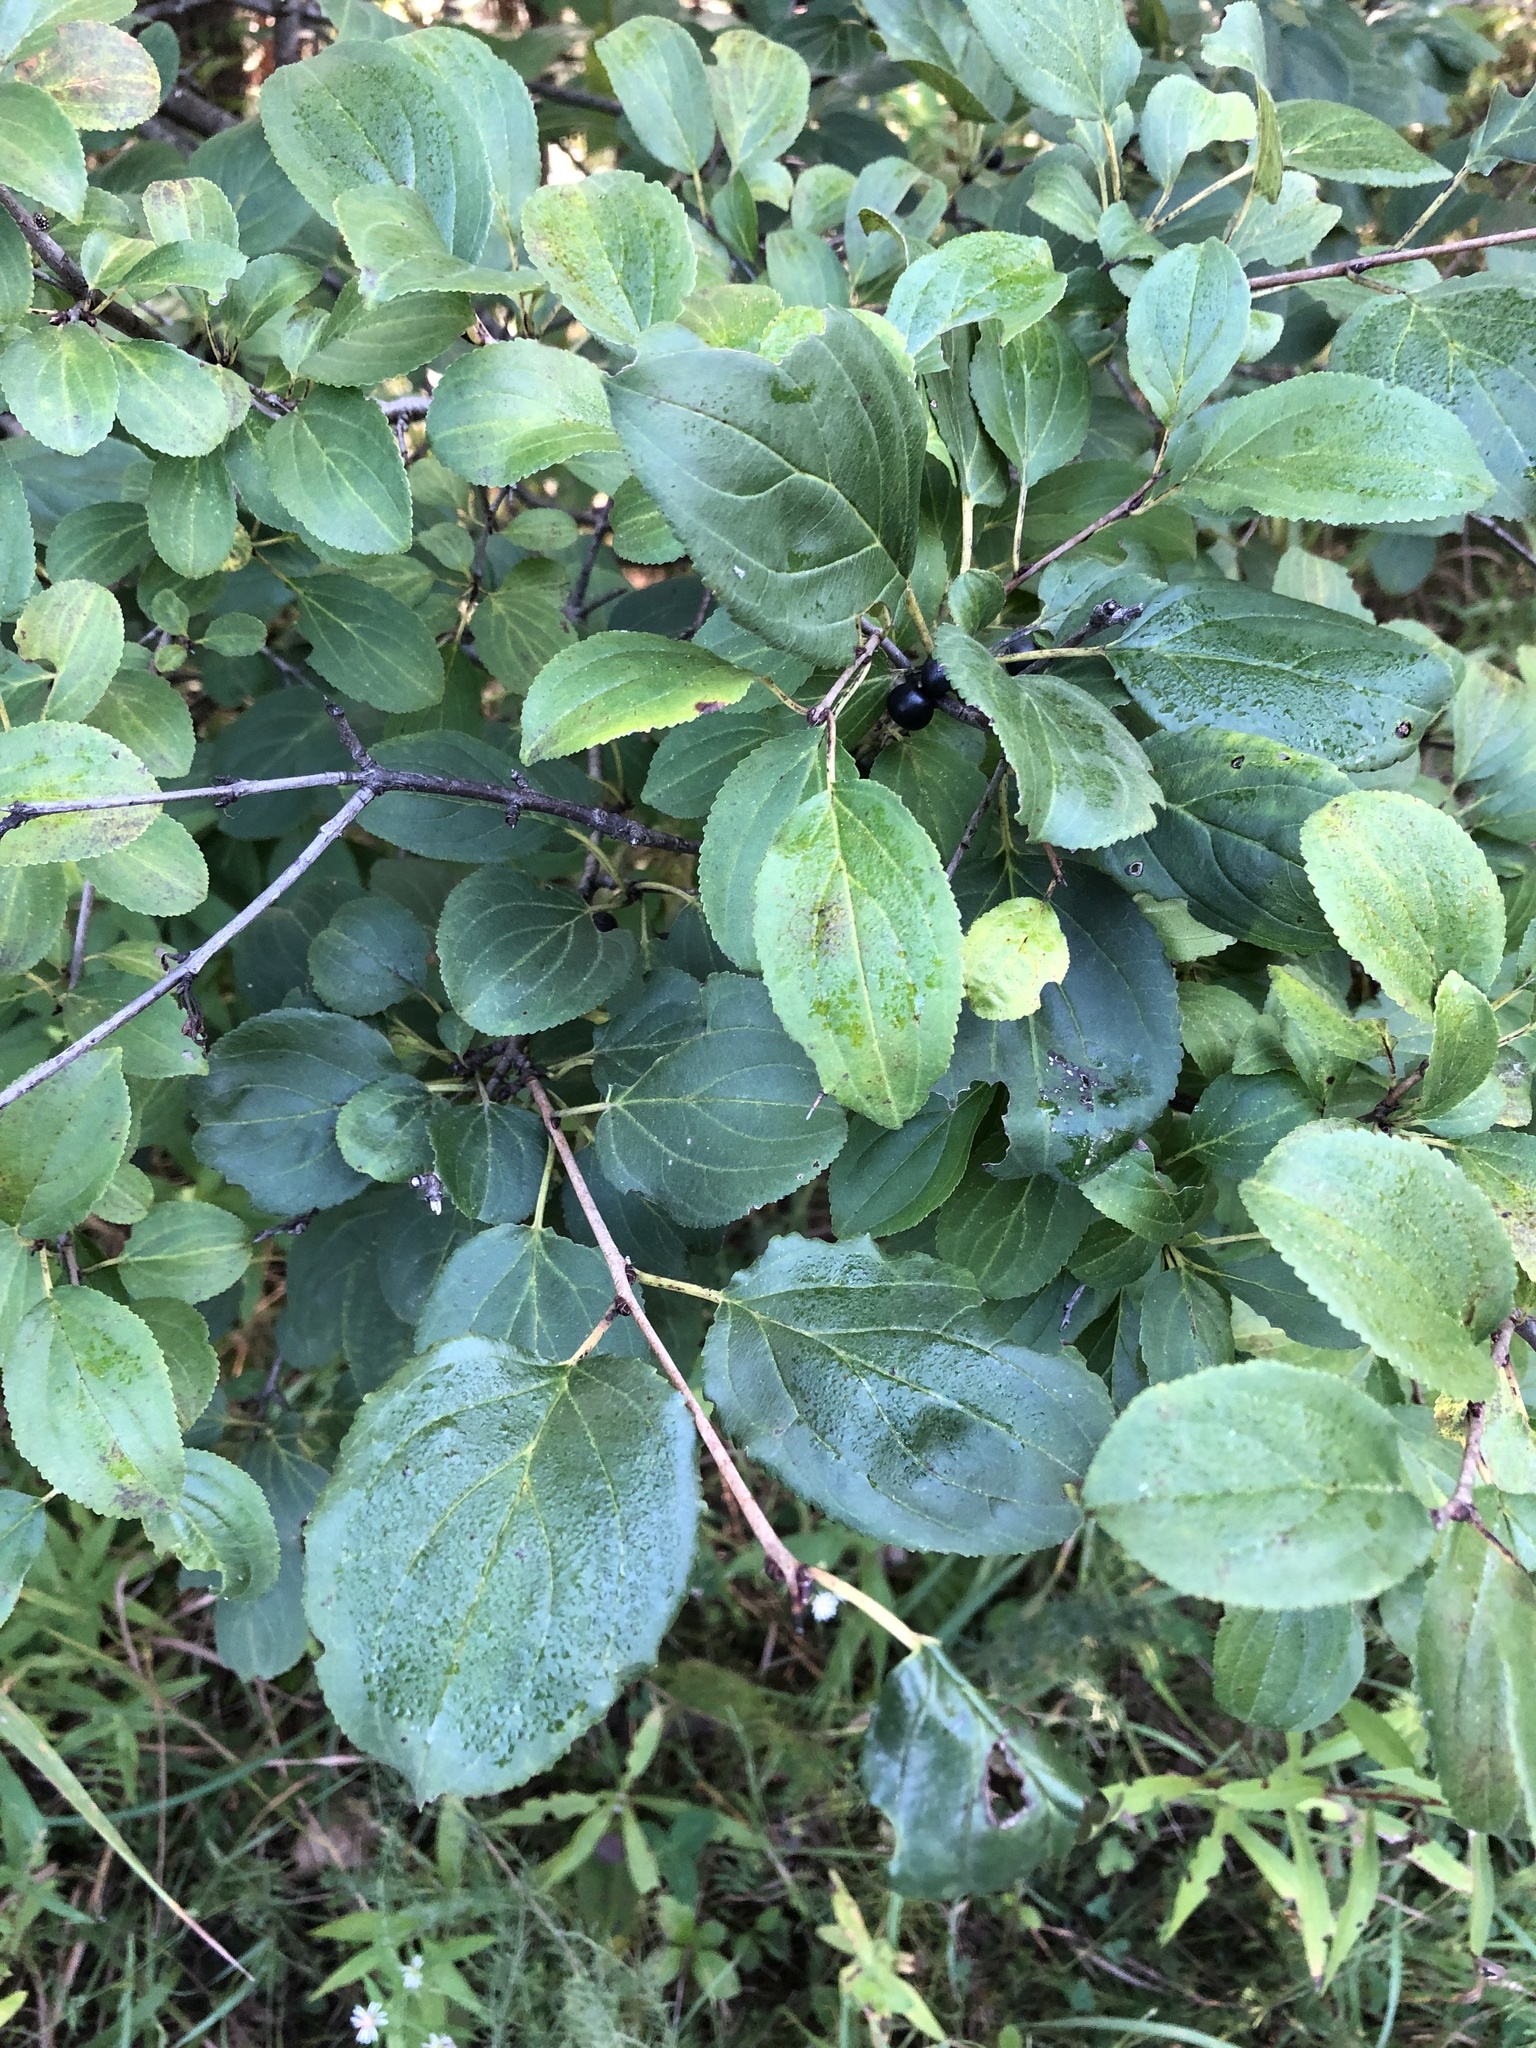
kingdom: Plantae
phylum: Tracheophyta
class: Magnoliopsida
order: Rosales
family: Rhamnaceae
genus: Rhamnus
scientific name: Rhamnus cathartica
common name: Common buckthorn
